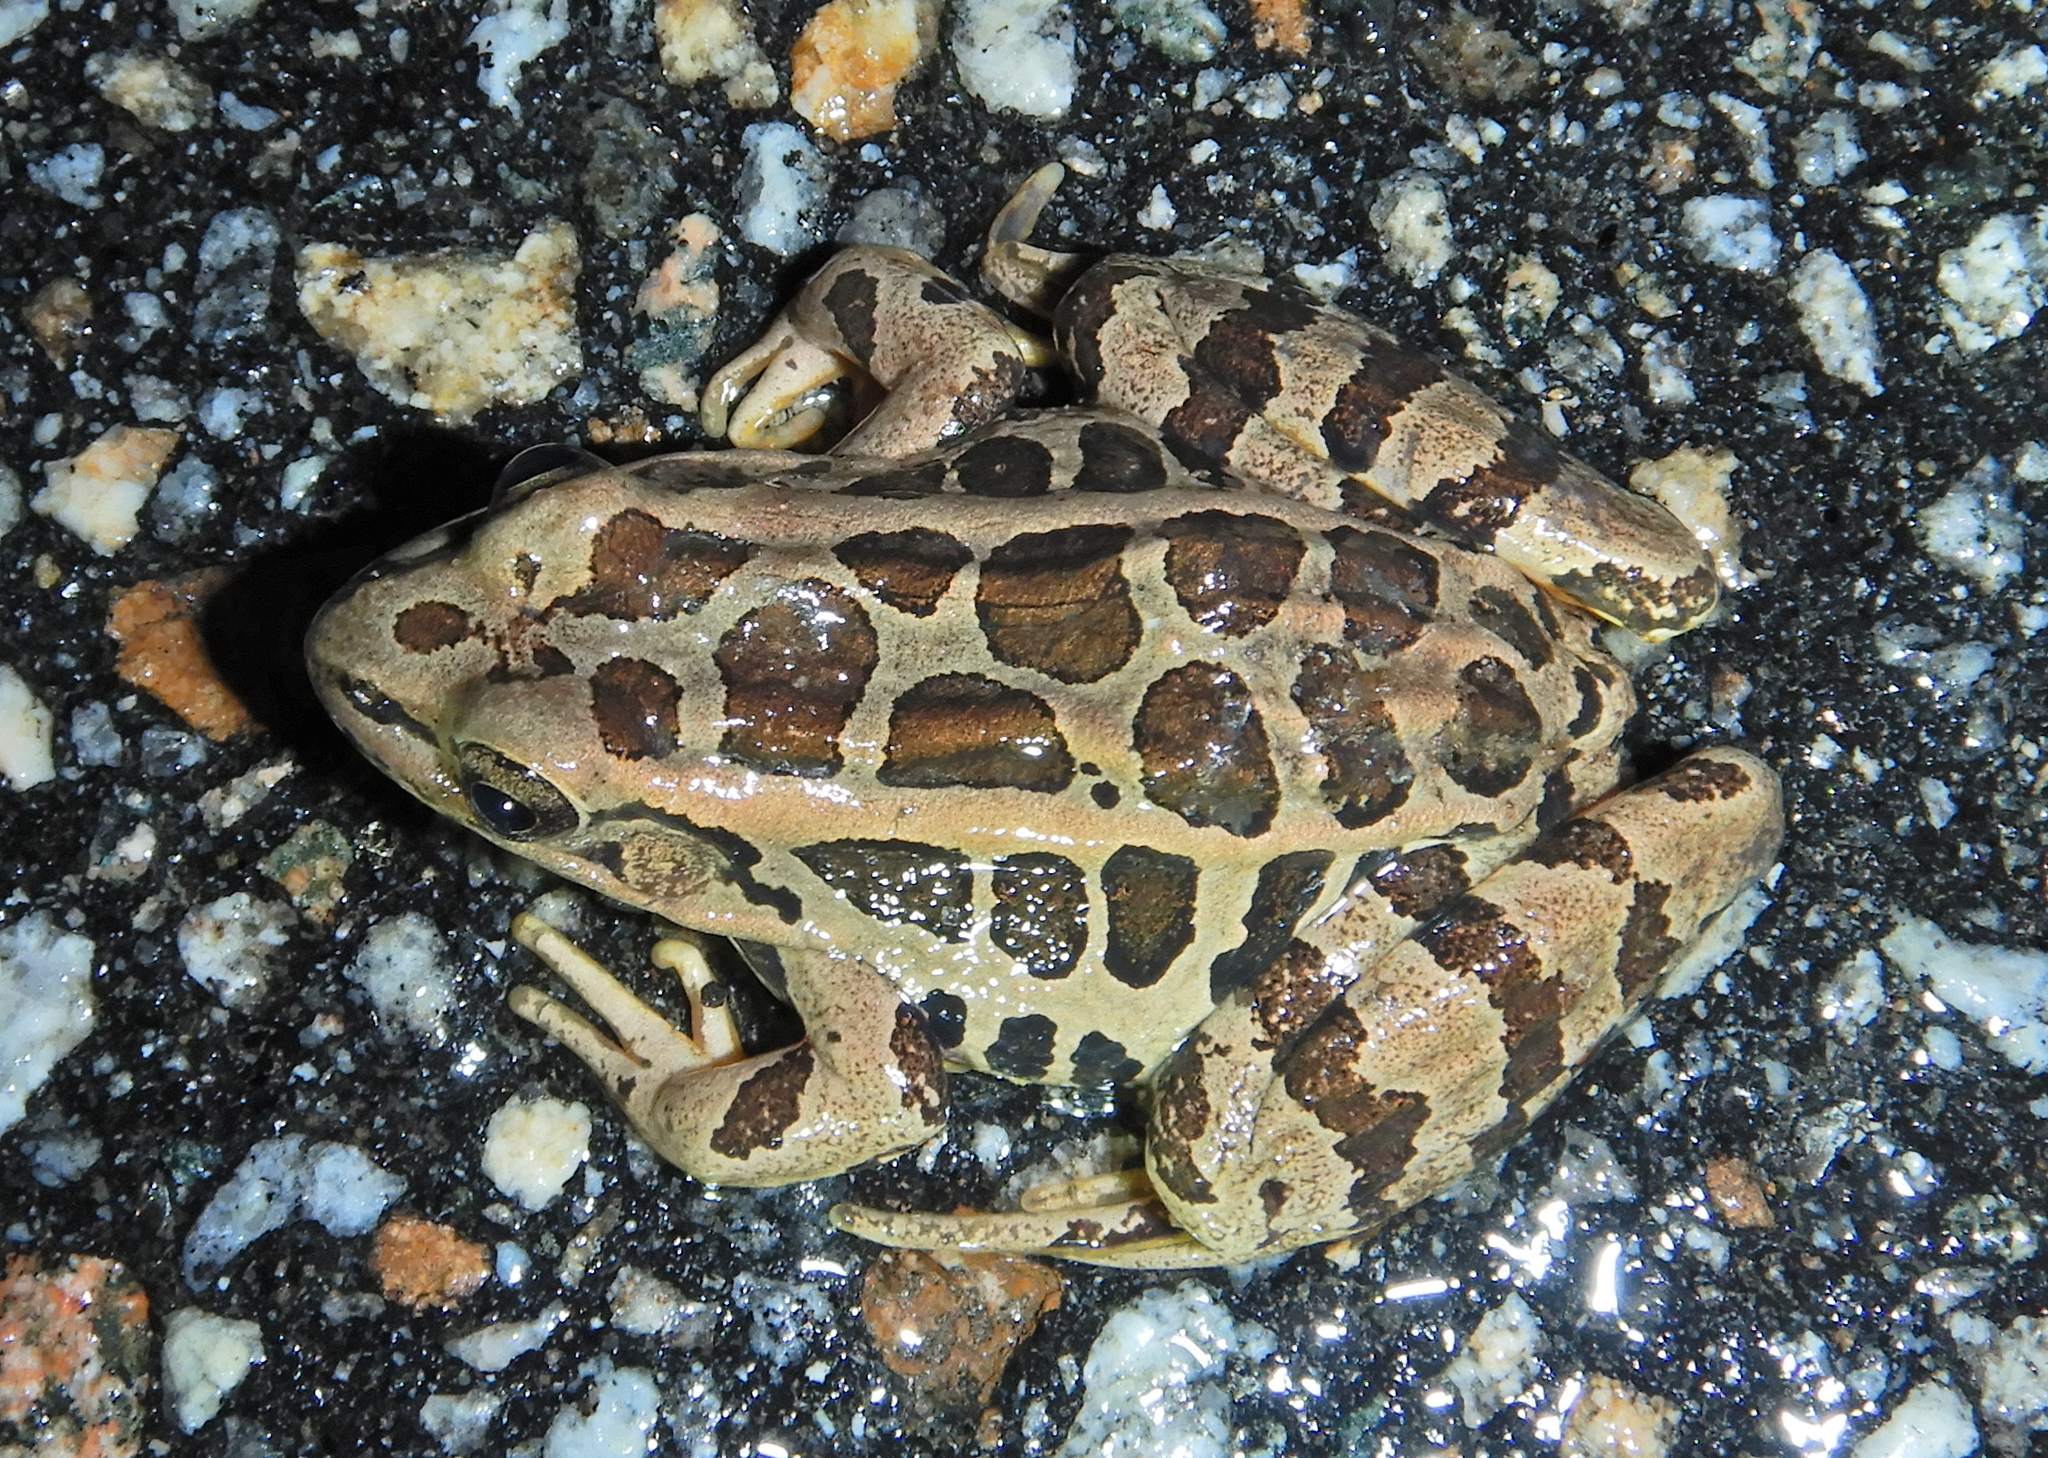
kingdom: Animalia
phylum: Chordata
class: Amphibia
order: Anura
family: Ranidae
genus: Lithobates
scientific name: Lithobates palustris
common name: Pickerel frog
